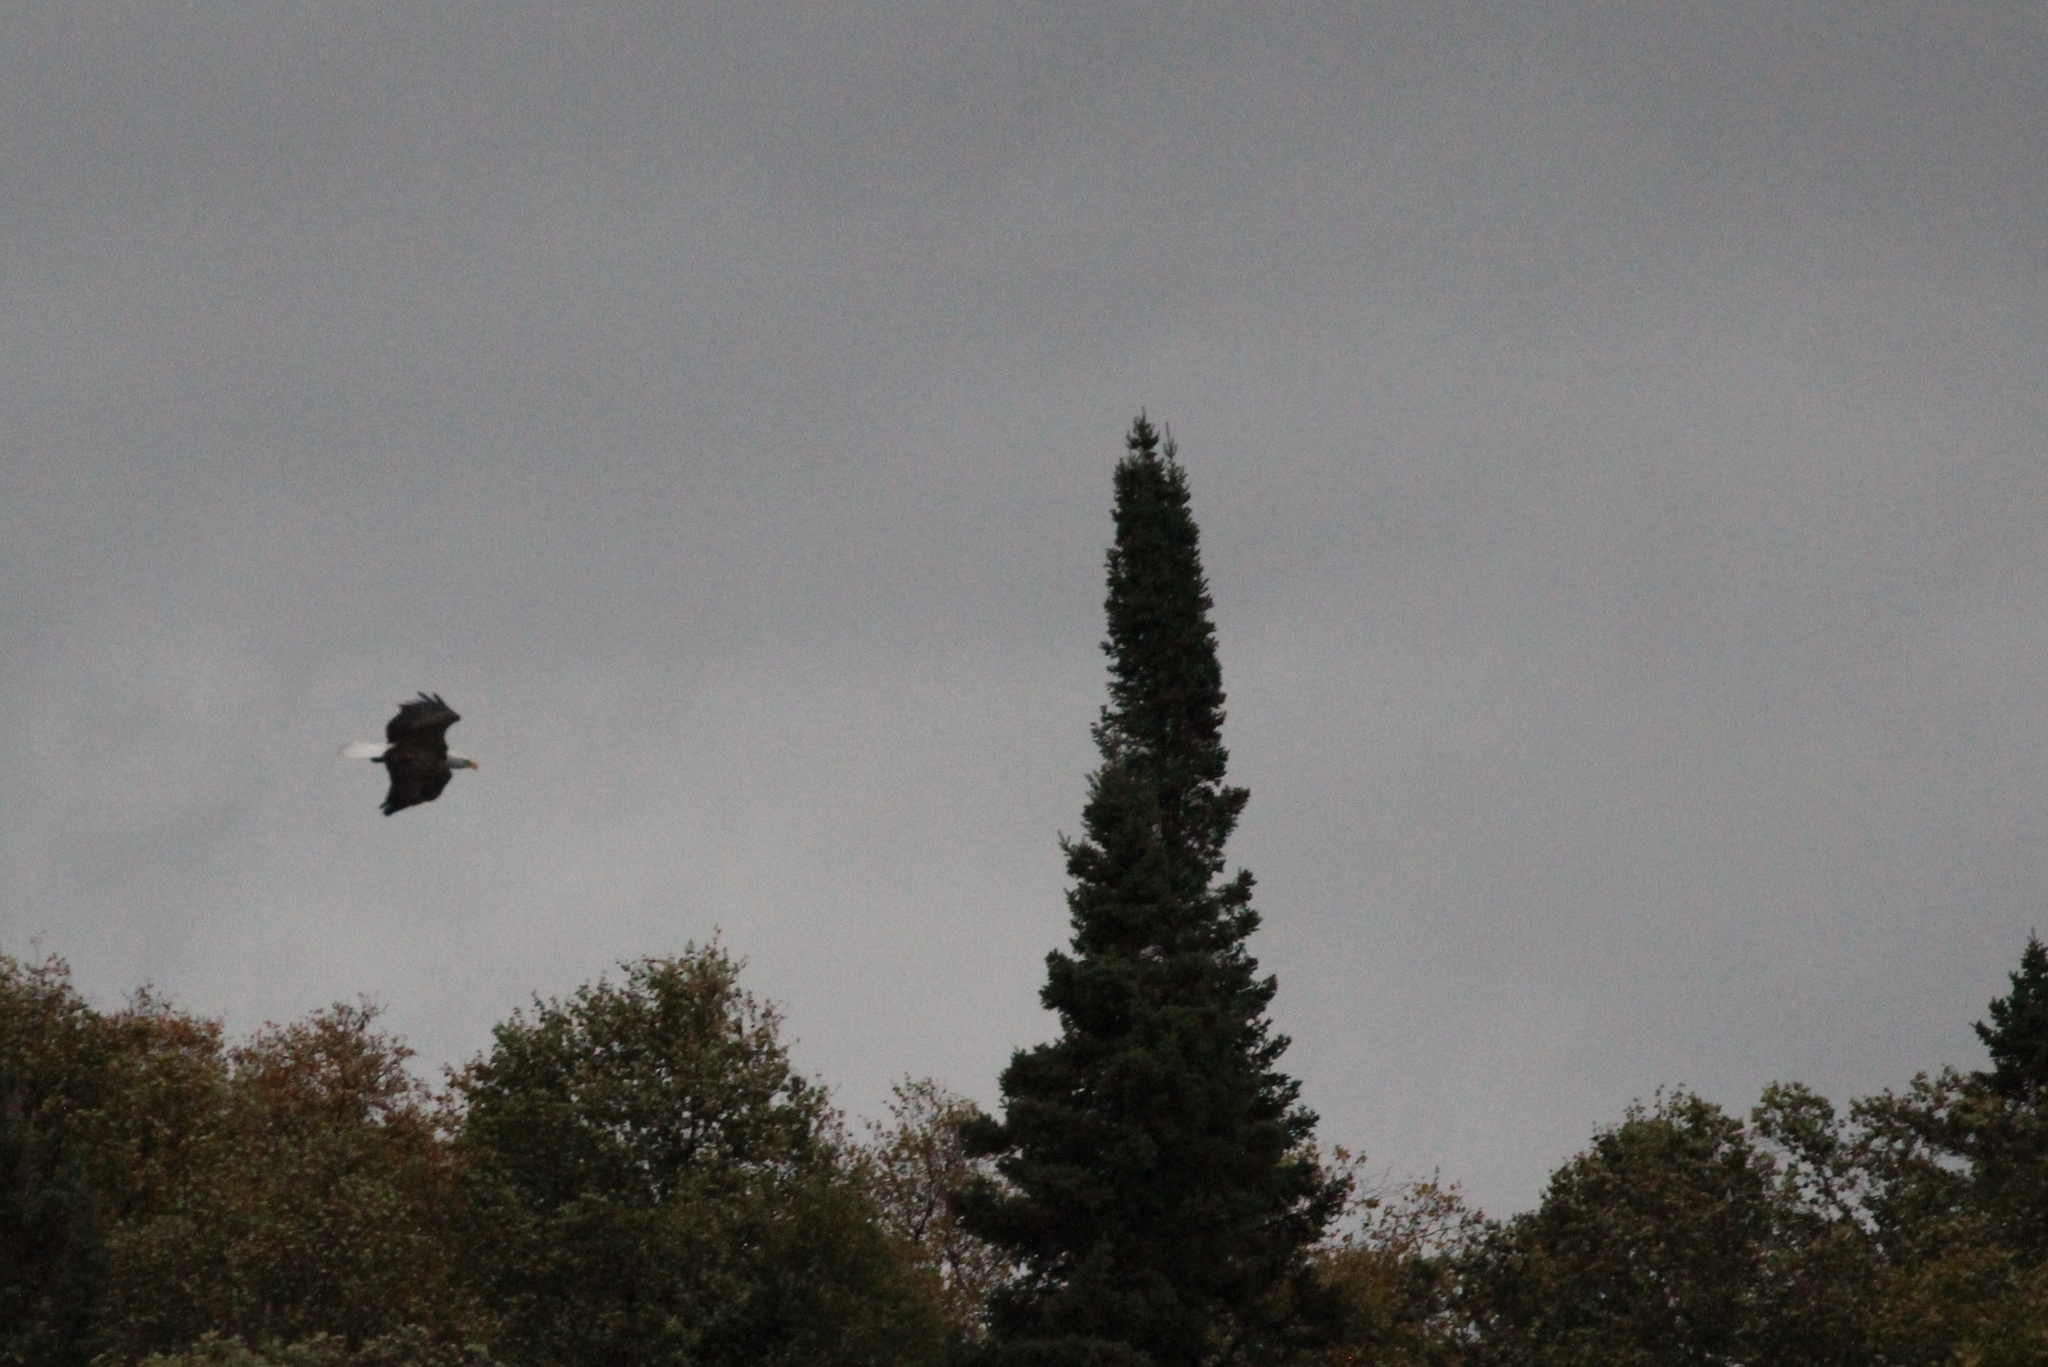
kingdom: Animalia
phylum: Chordata
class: Aves
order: Accipitriformes
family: Accipitridae
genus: Haliaeetus
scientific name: Haliaeetus leucocephalus
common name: Bald eagle
